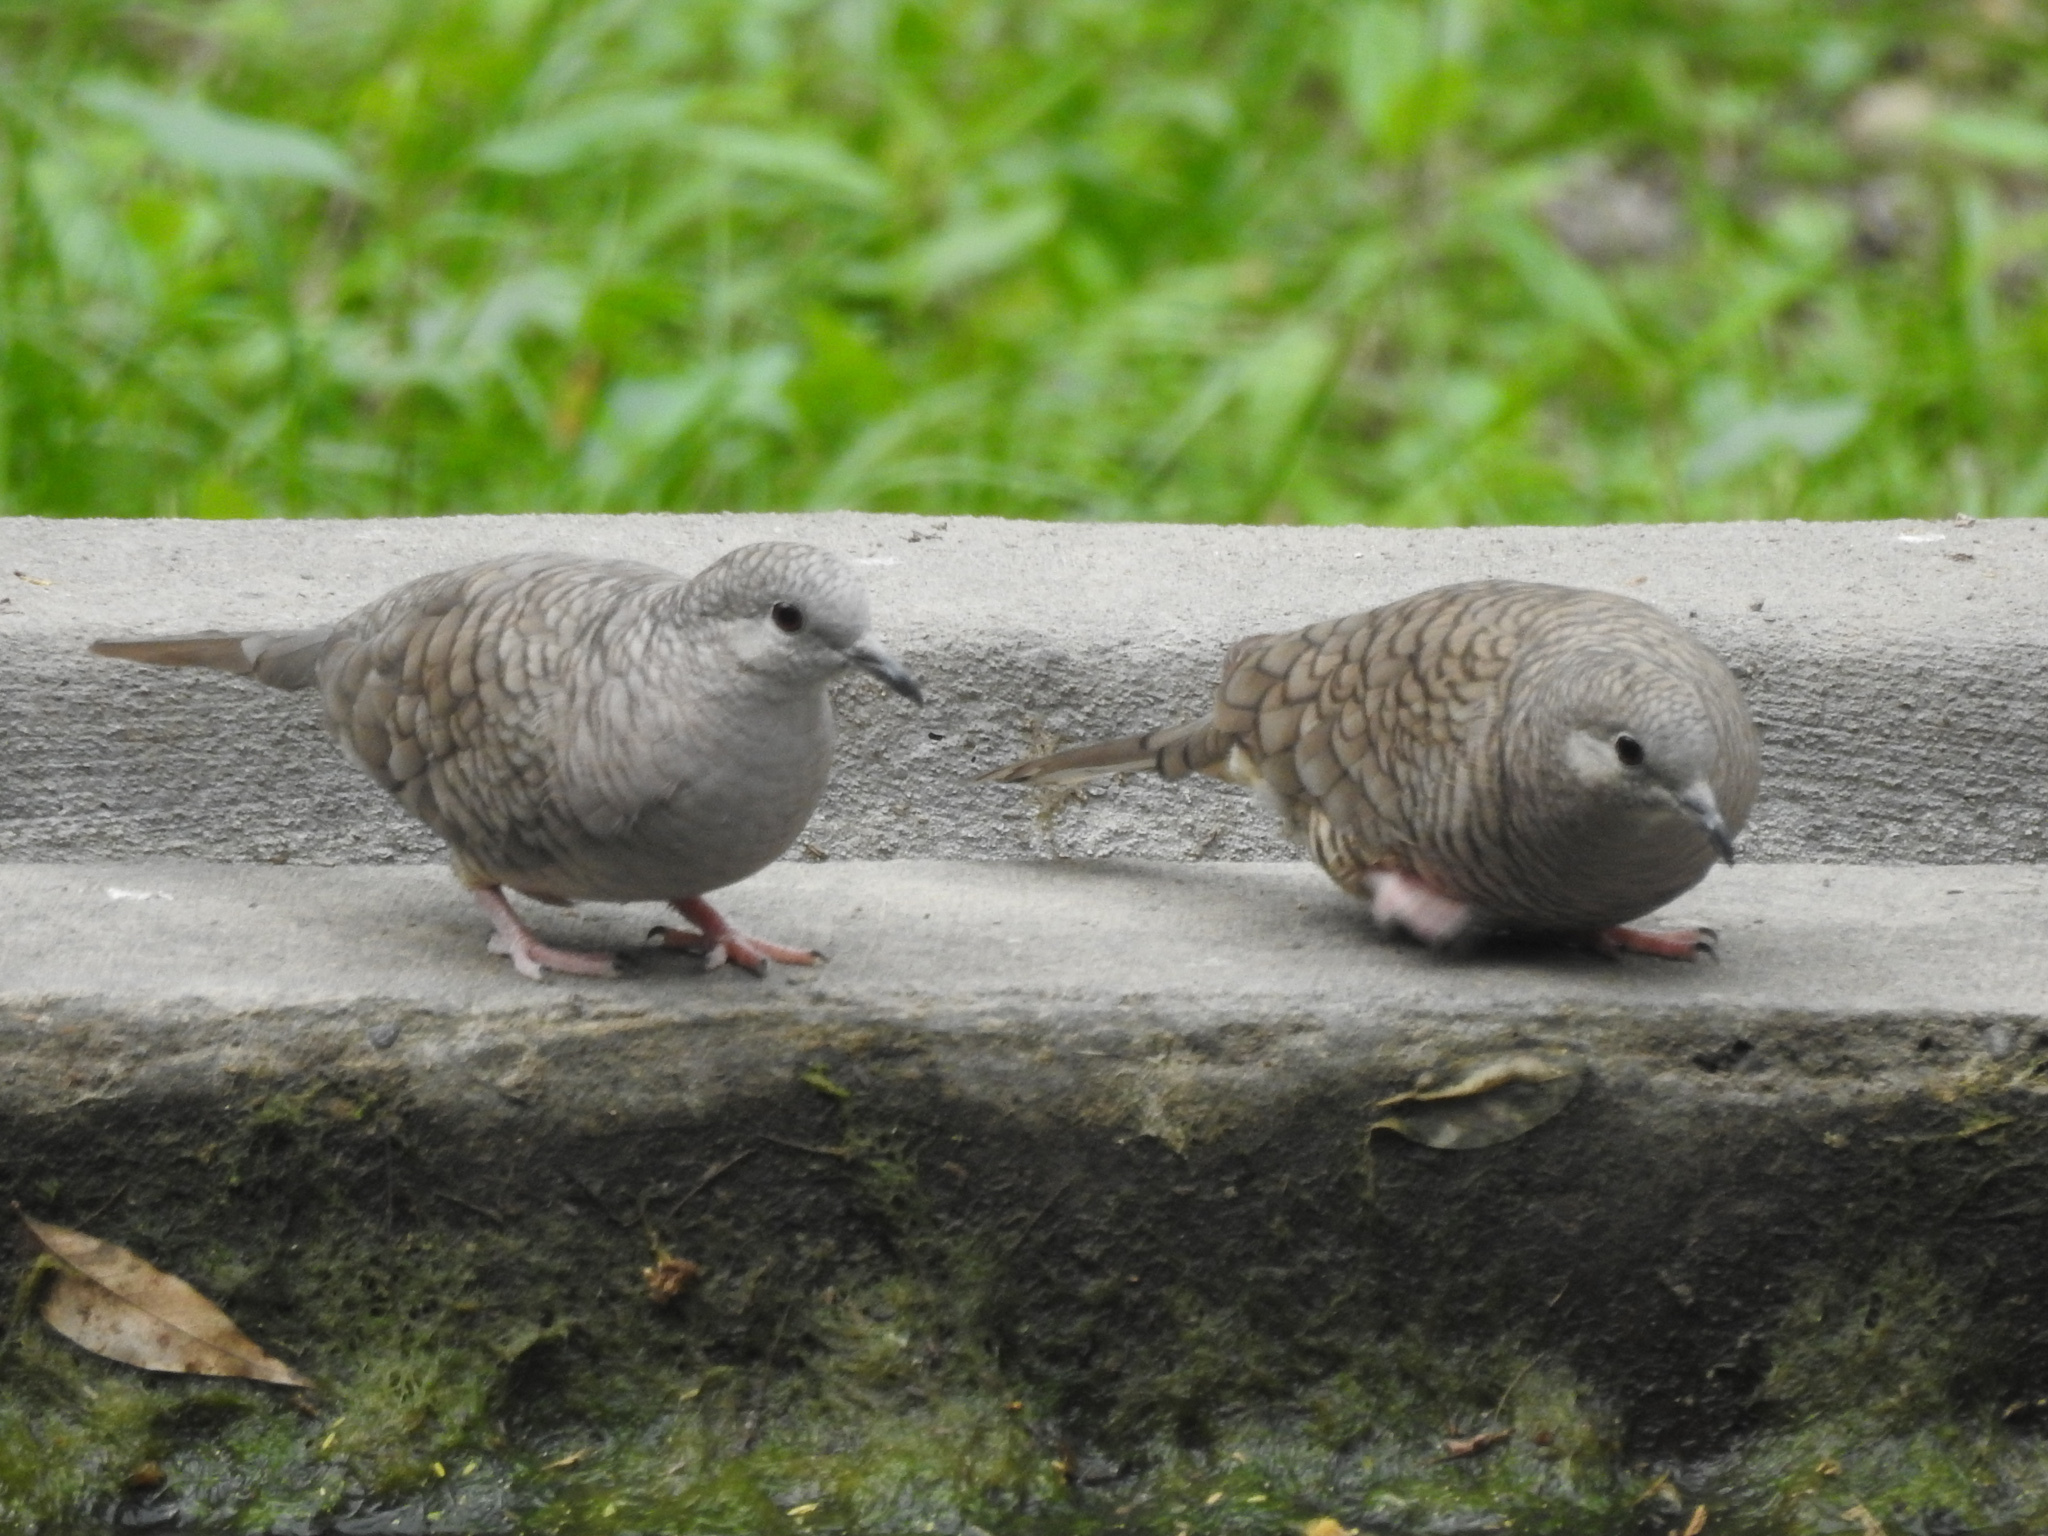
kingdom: Animalia
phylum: Chordata
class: Aves
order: Columbiformes
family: Columbidae
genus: Columbina
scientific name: Columbina inca
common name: Inca dove
